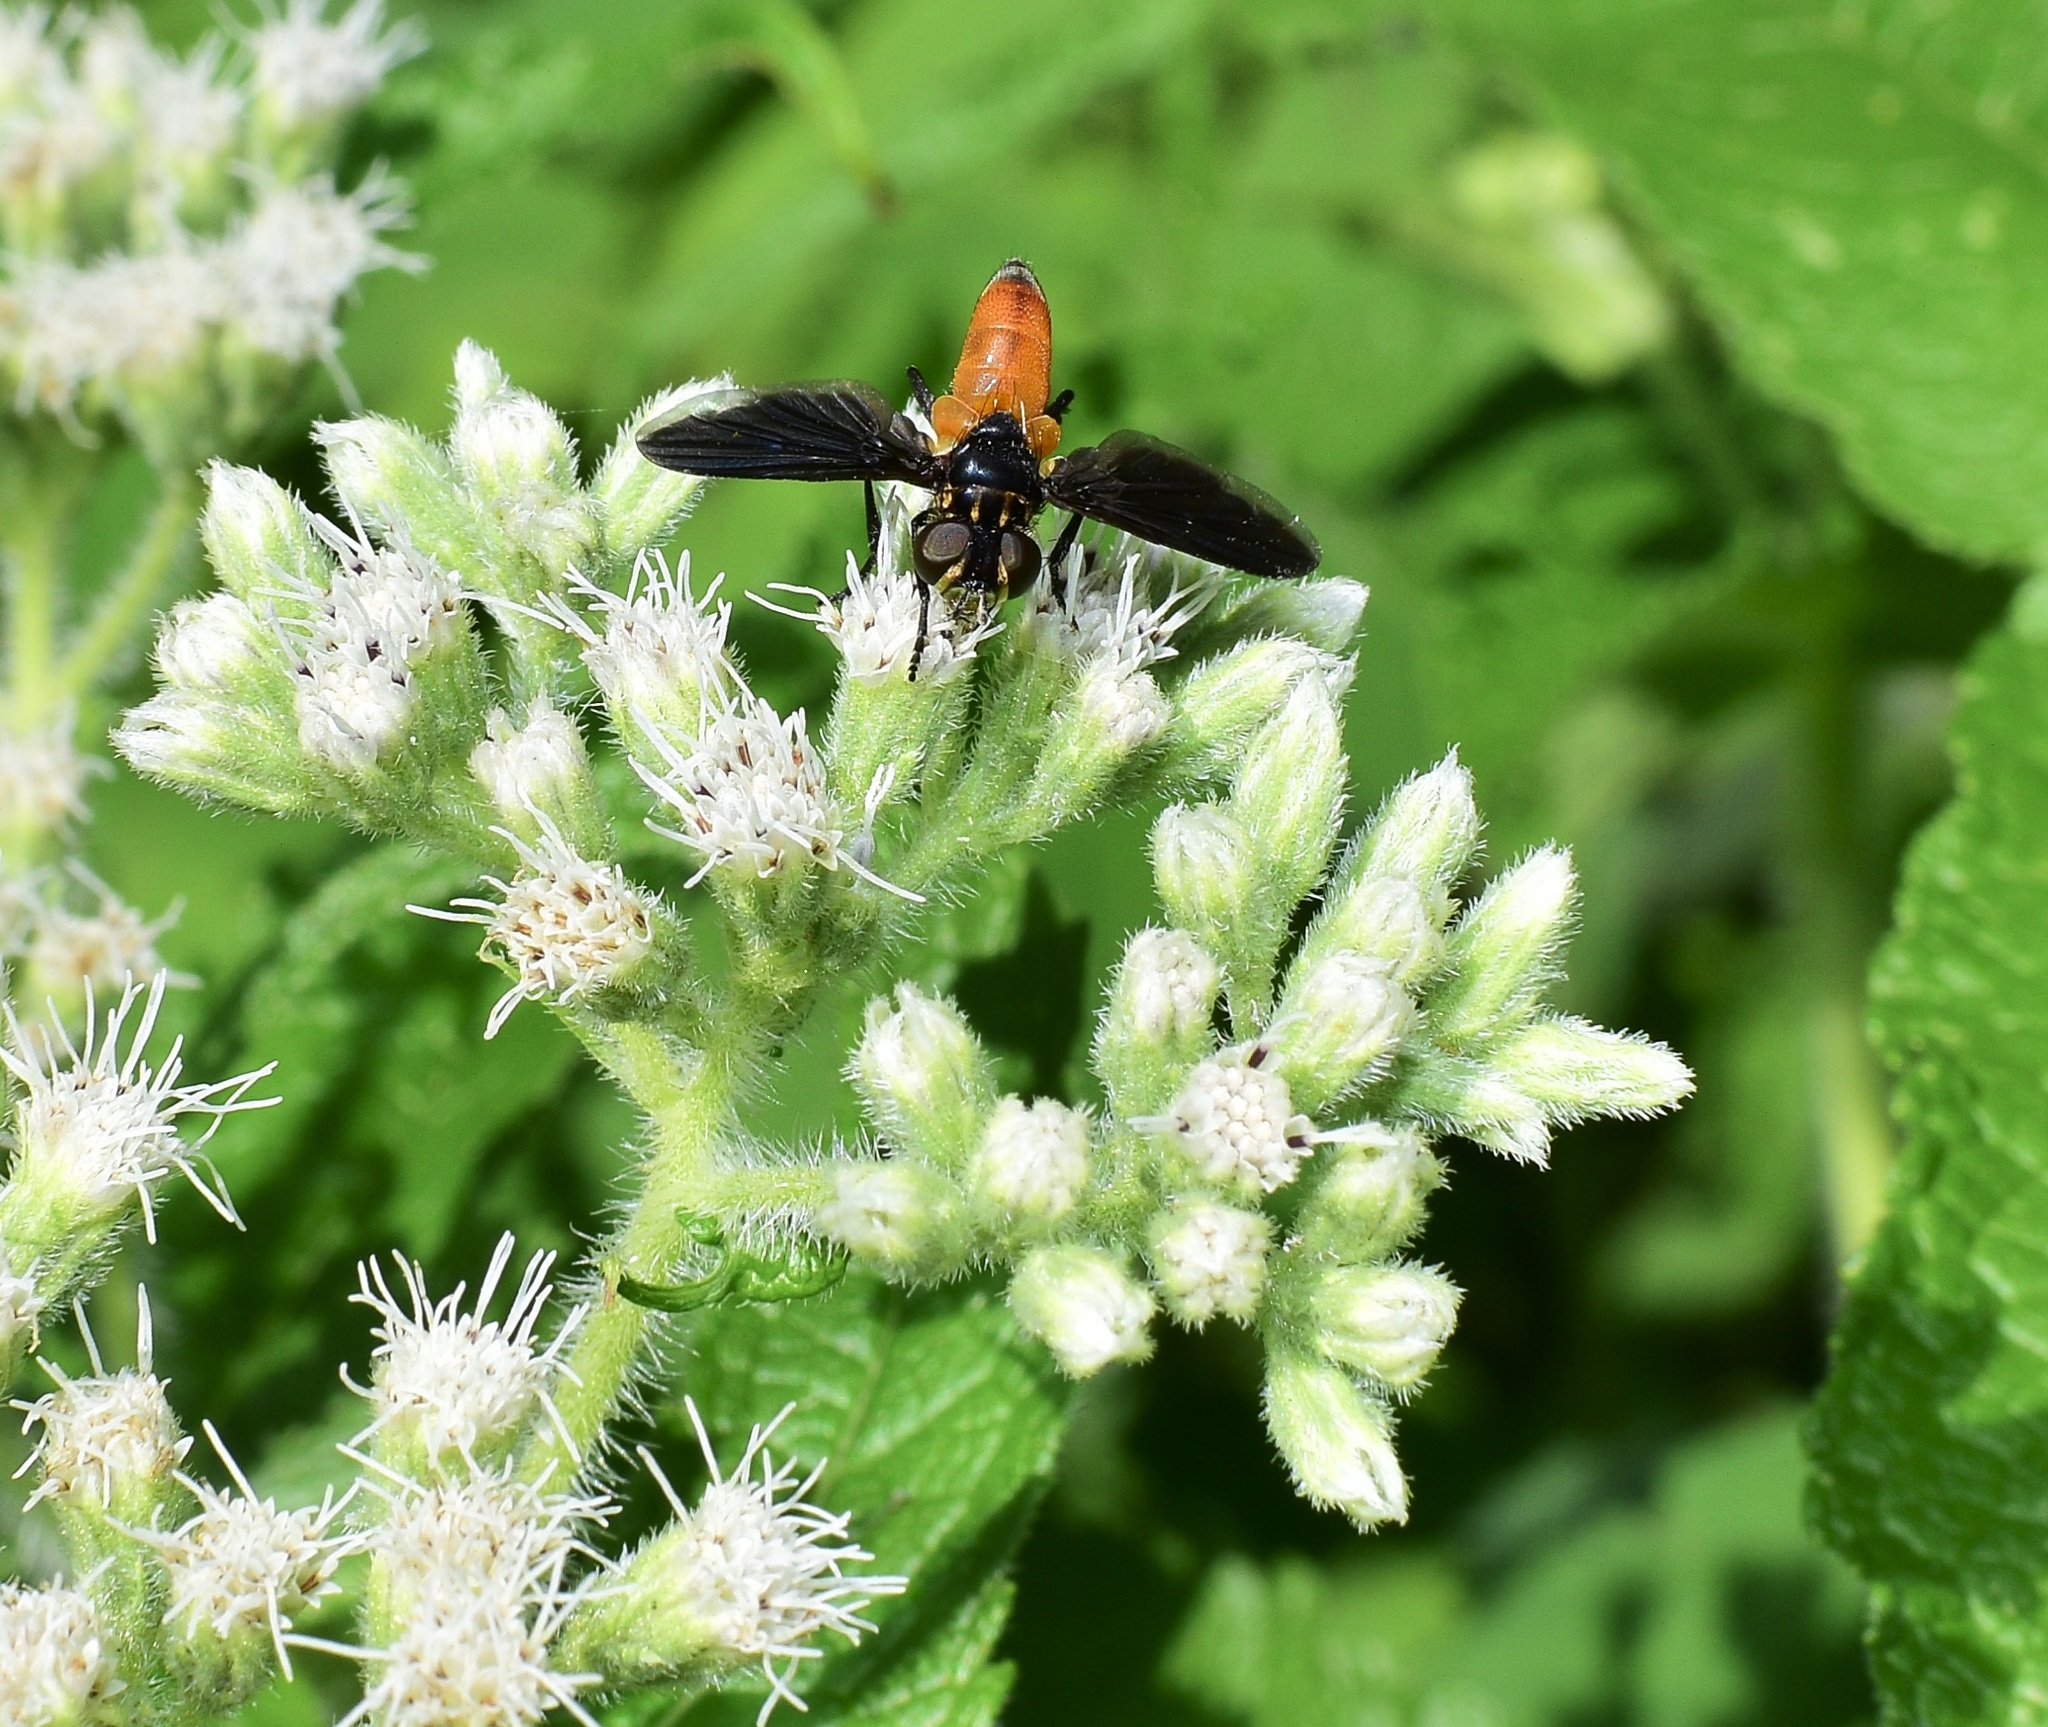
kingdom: Animalia
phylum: Arthropoda
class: Insecta
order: Diptera
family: Tachinidae
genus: Trichopoda
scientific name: Trichopoda pennipes
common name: Tachinid fly
